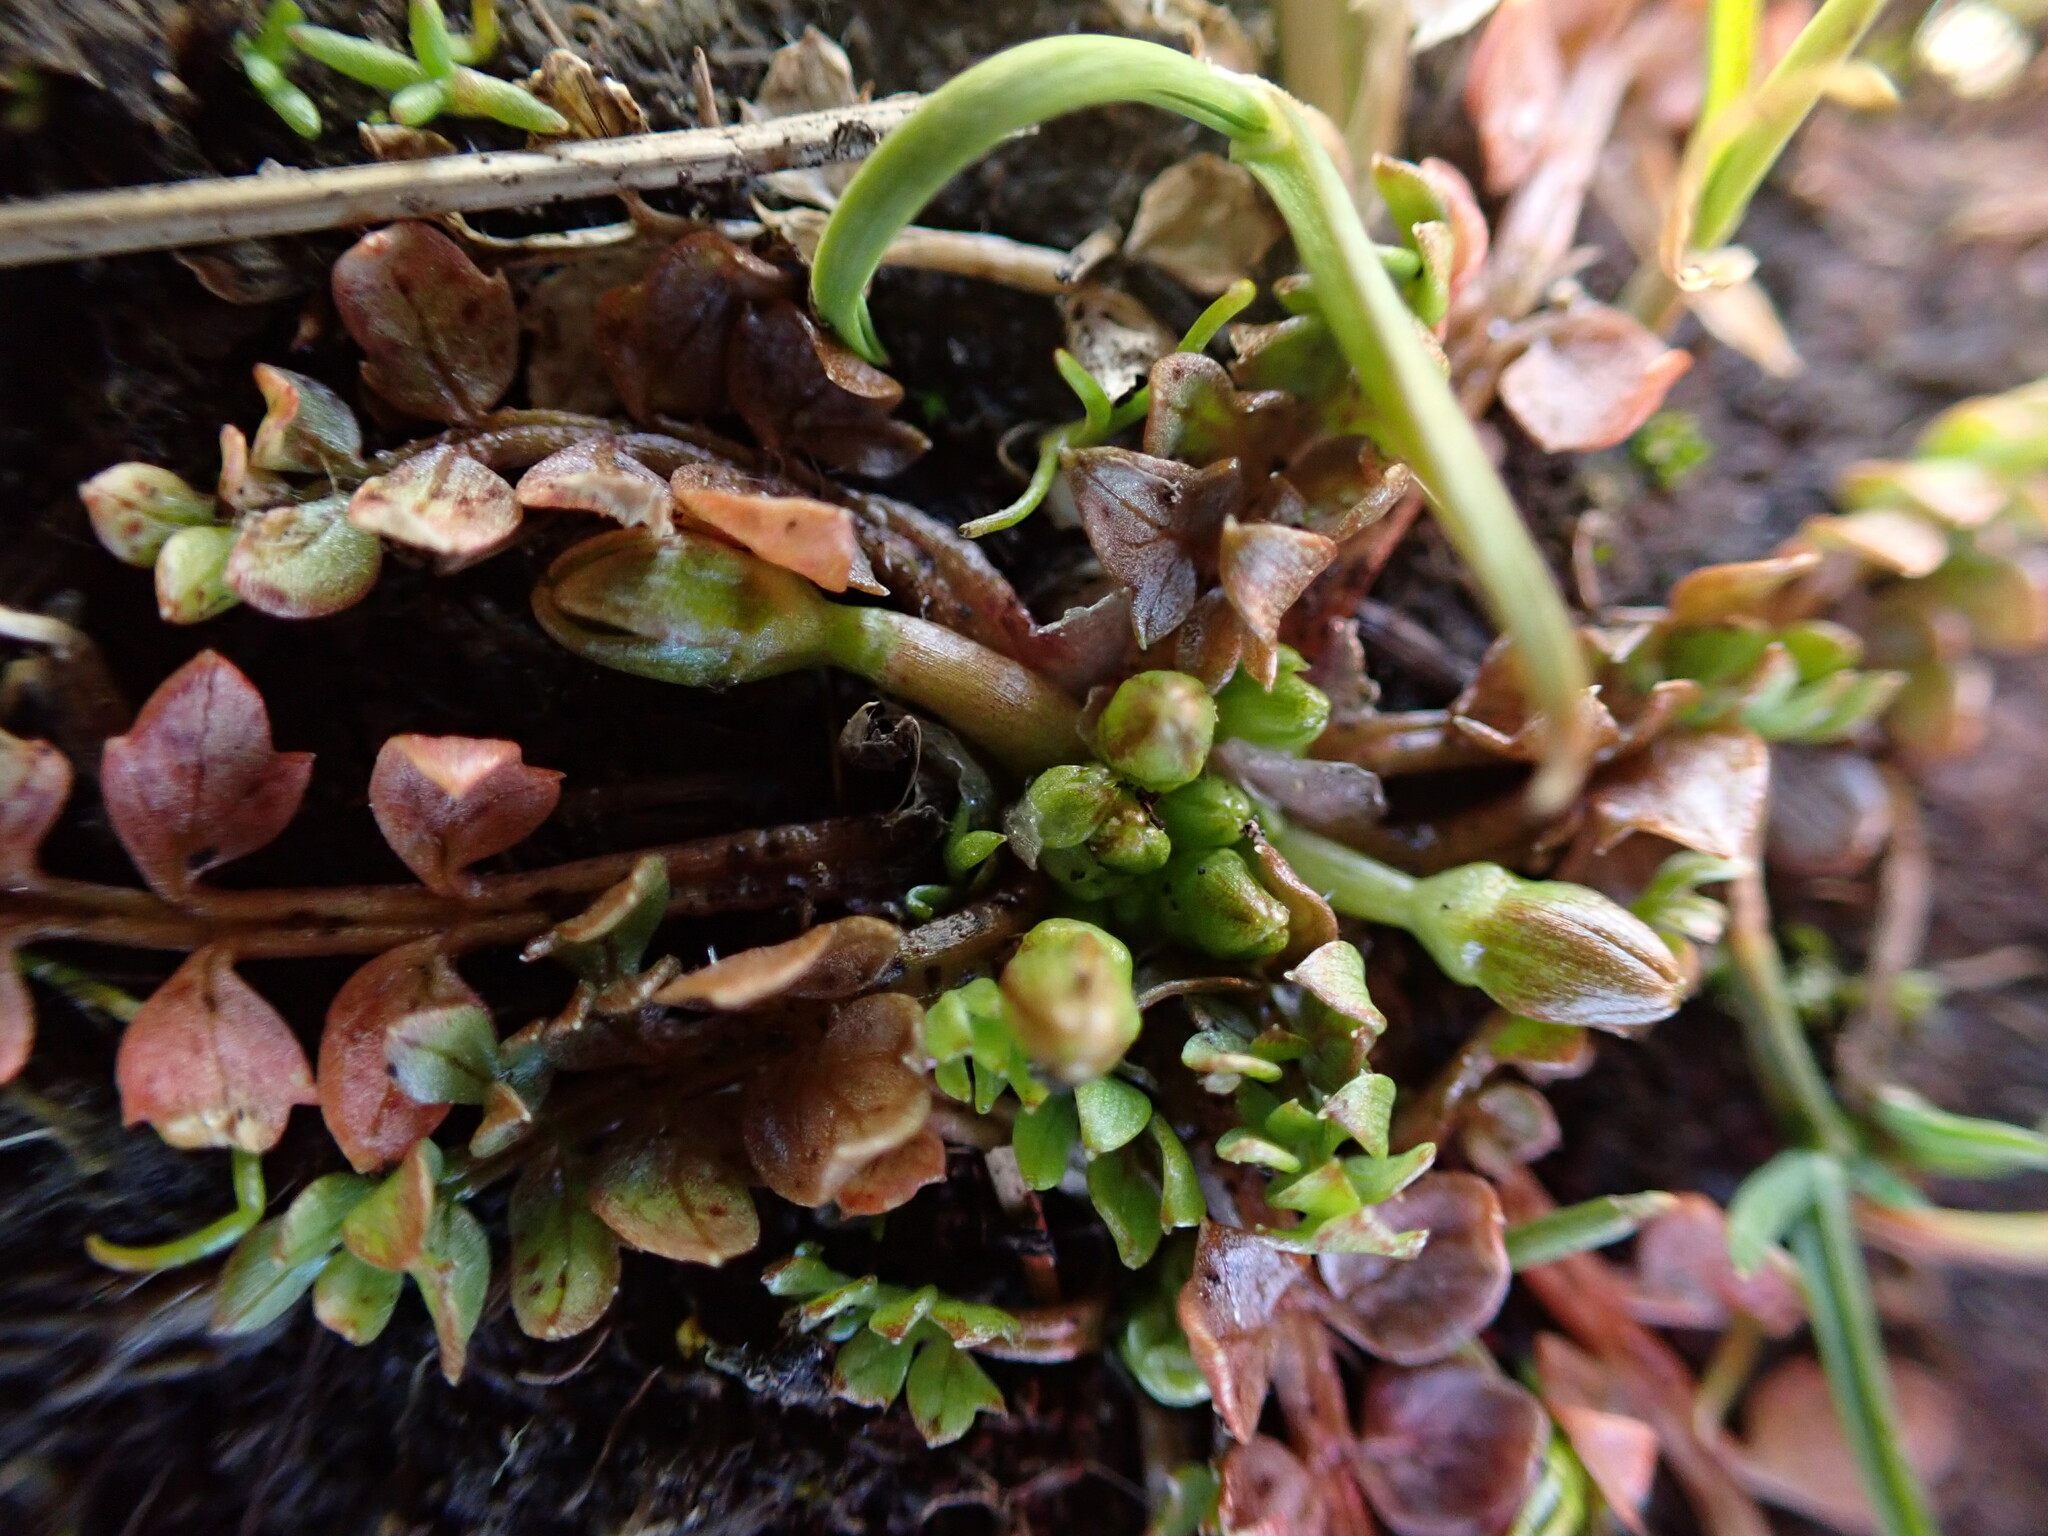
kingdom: Plantae
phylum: Tracheophyta
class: Magnoliopsida
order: Brassicales
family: Limnanthaceae
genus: Limnanthes
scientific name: Limnanthes macounii
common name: Macoun's meadowfoam
